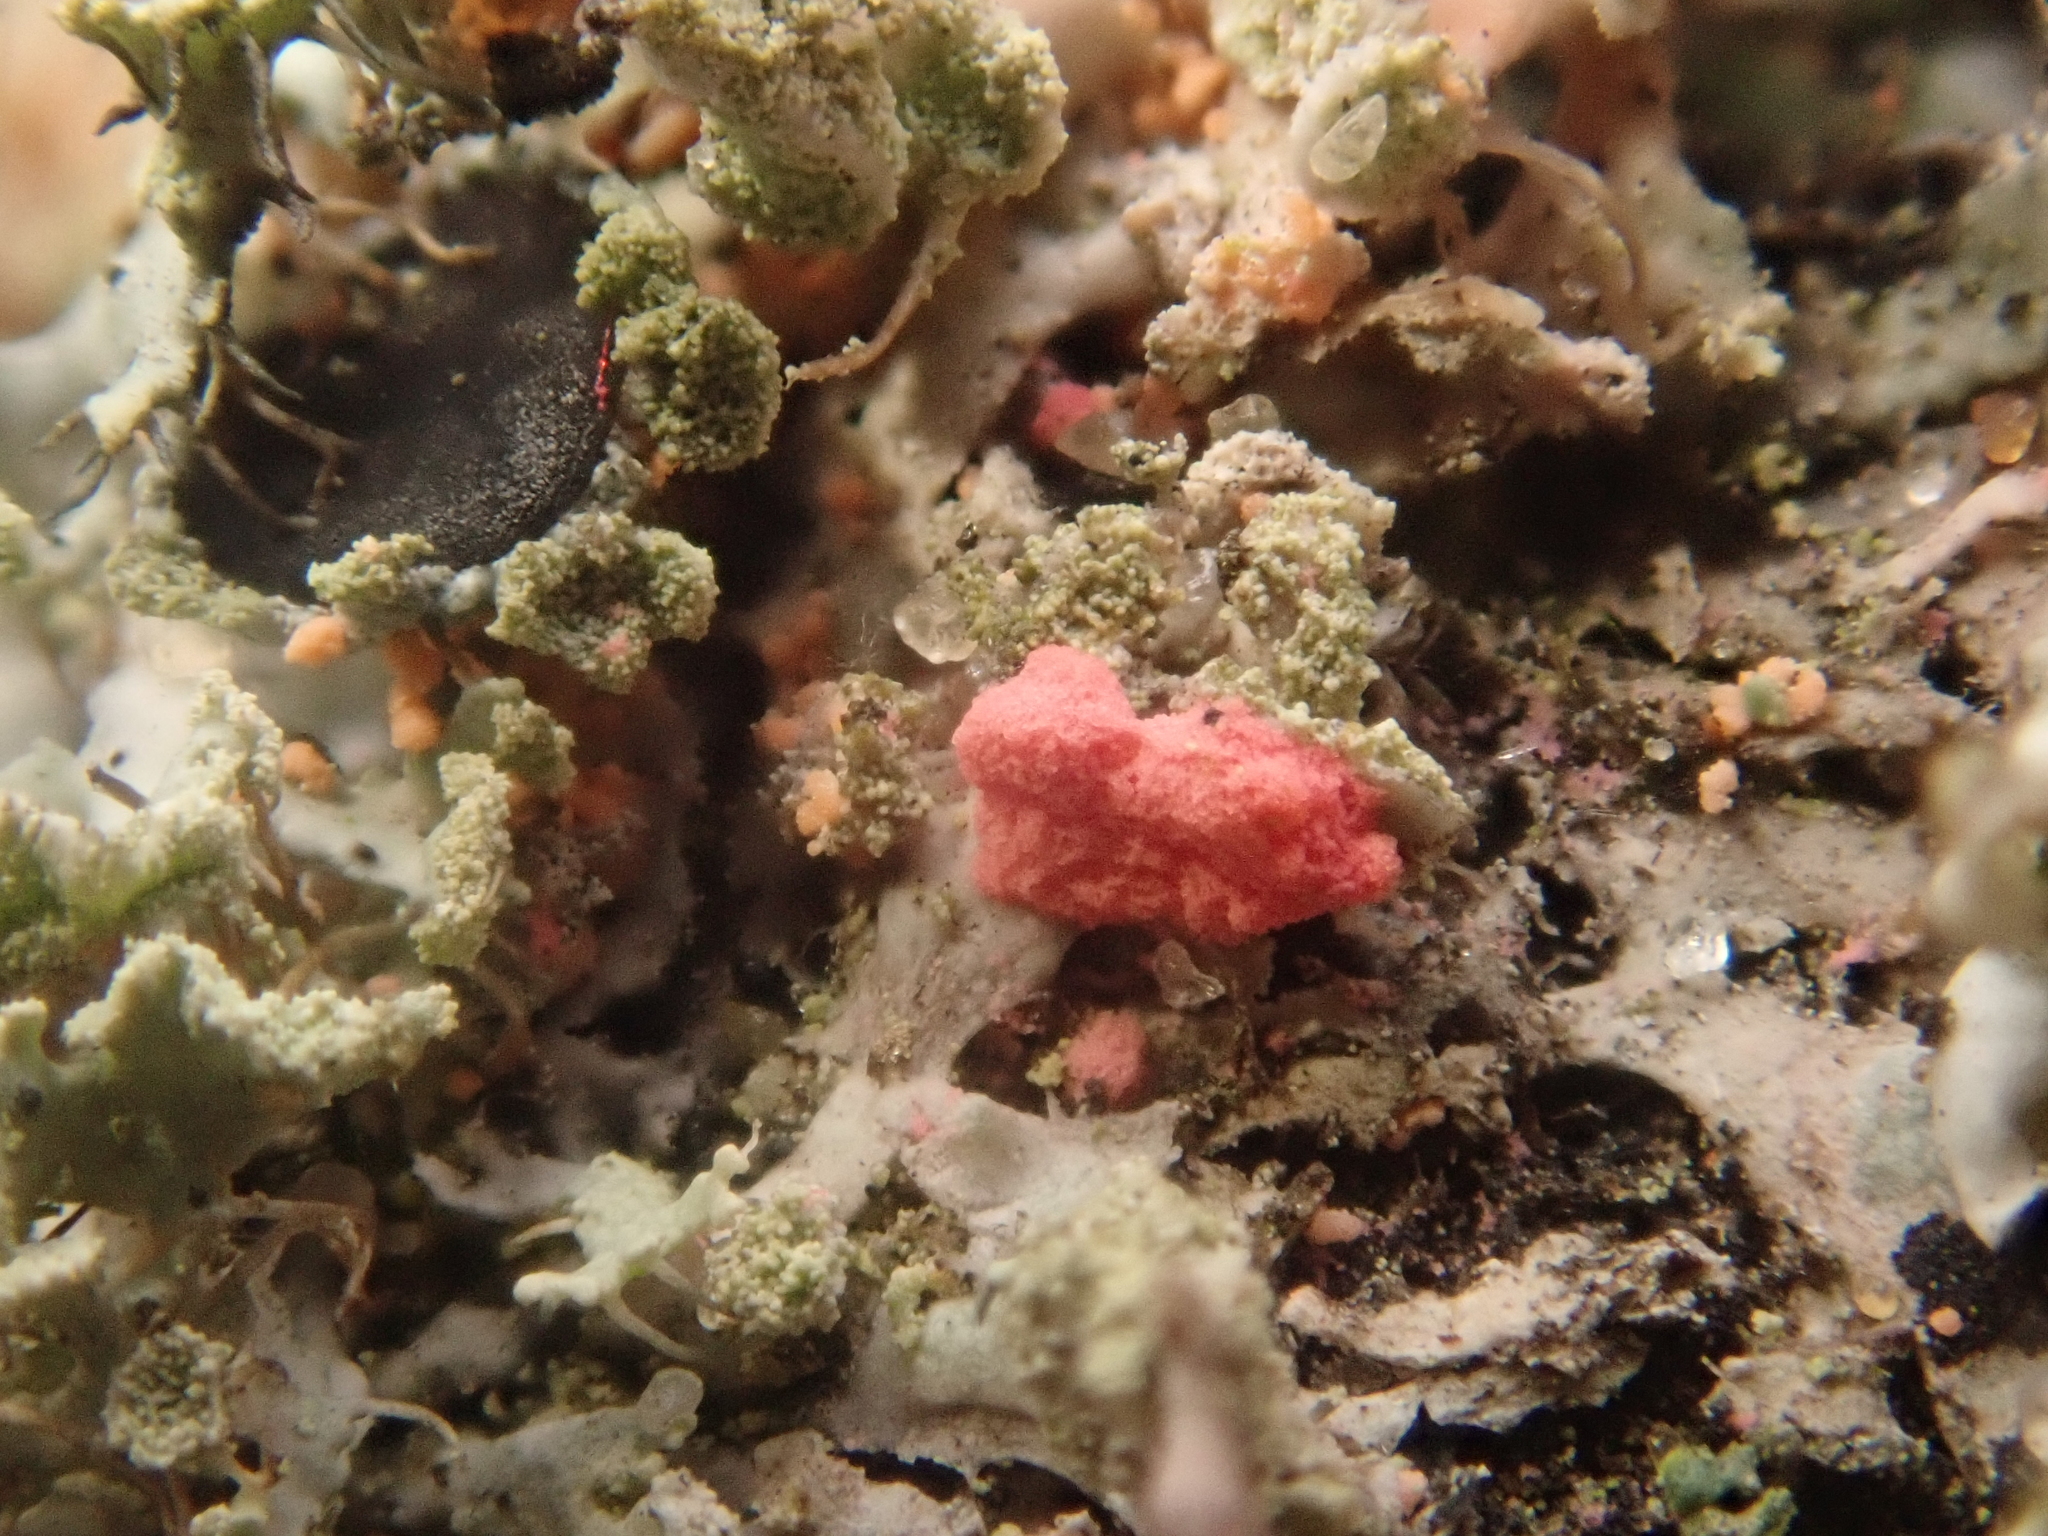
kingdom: Fungi
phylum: Ascomycota
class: Sordariomycetes
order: Hypocreales
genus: Illosporiopsis
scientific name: Illosporiopsis christiansenii
